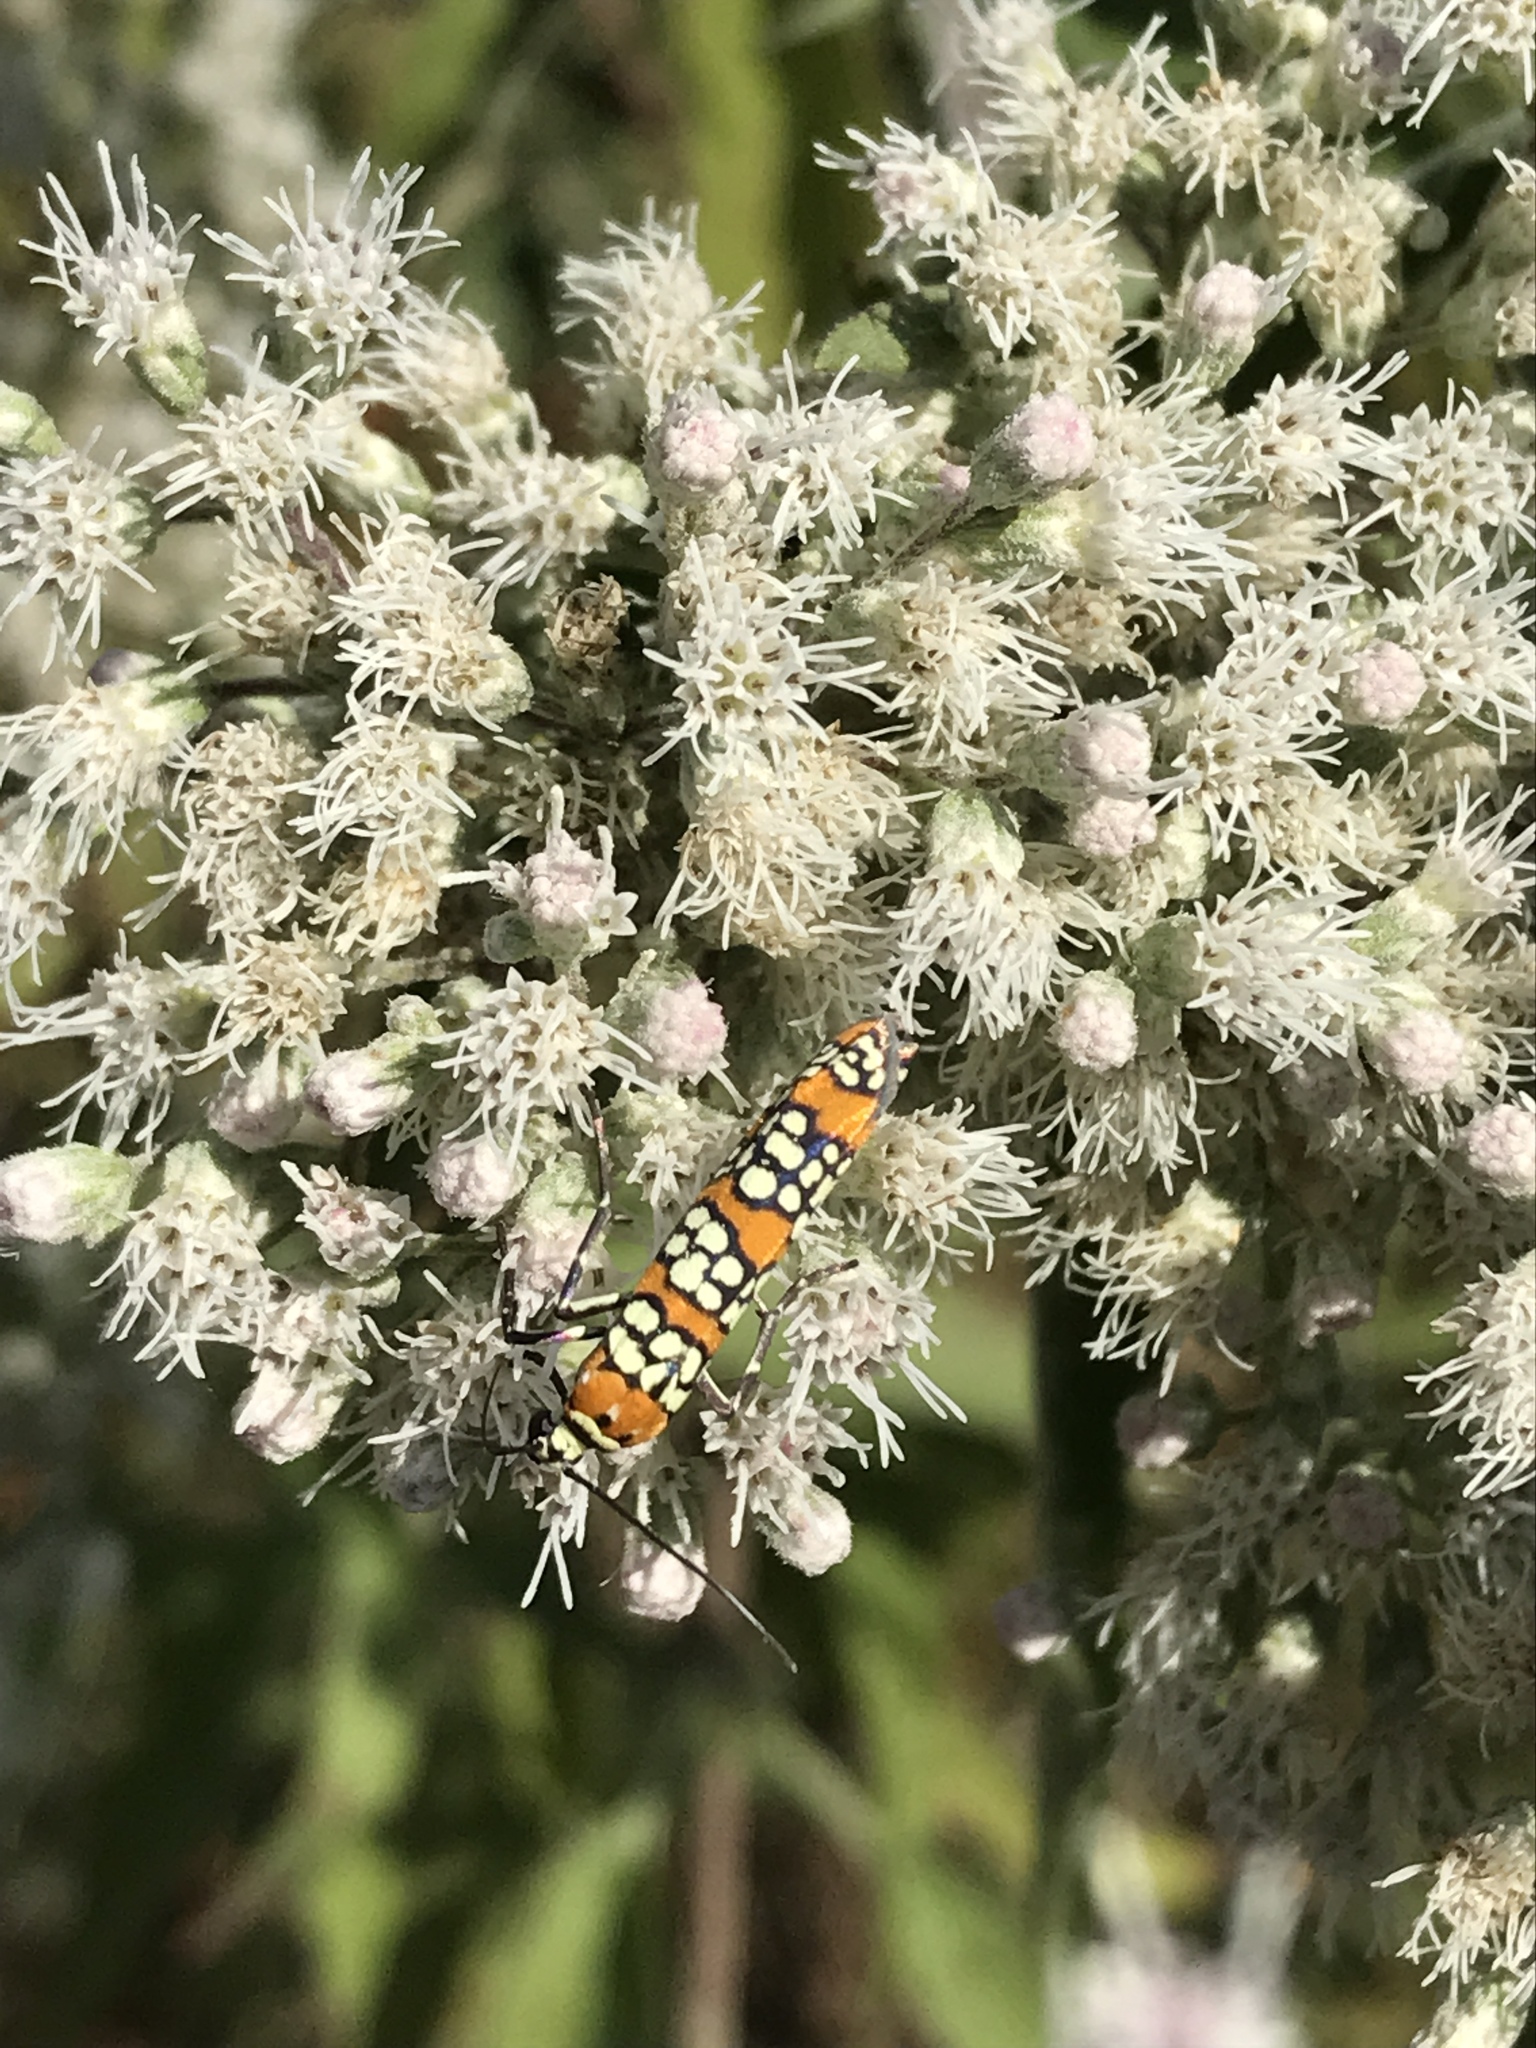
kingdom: Animalia
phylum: Arthropoda
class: Insecta
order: Lepidoptera
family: Attevidae
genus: Atteva
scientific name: Atteva punctella
